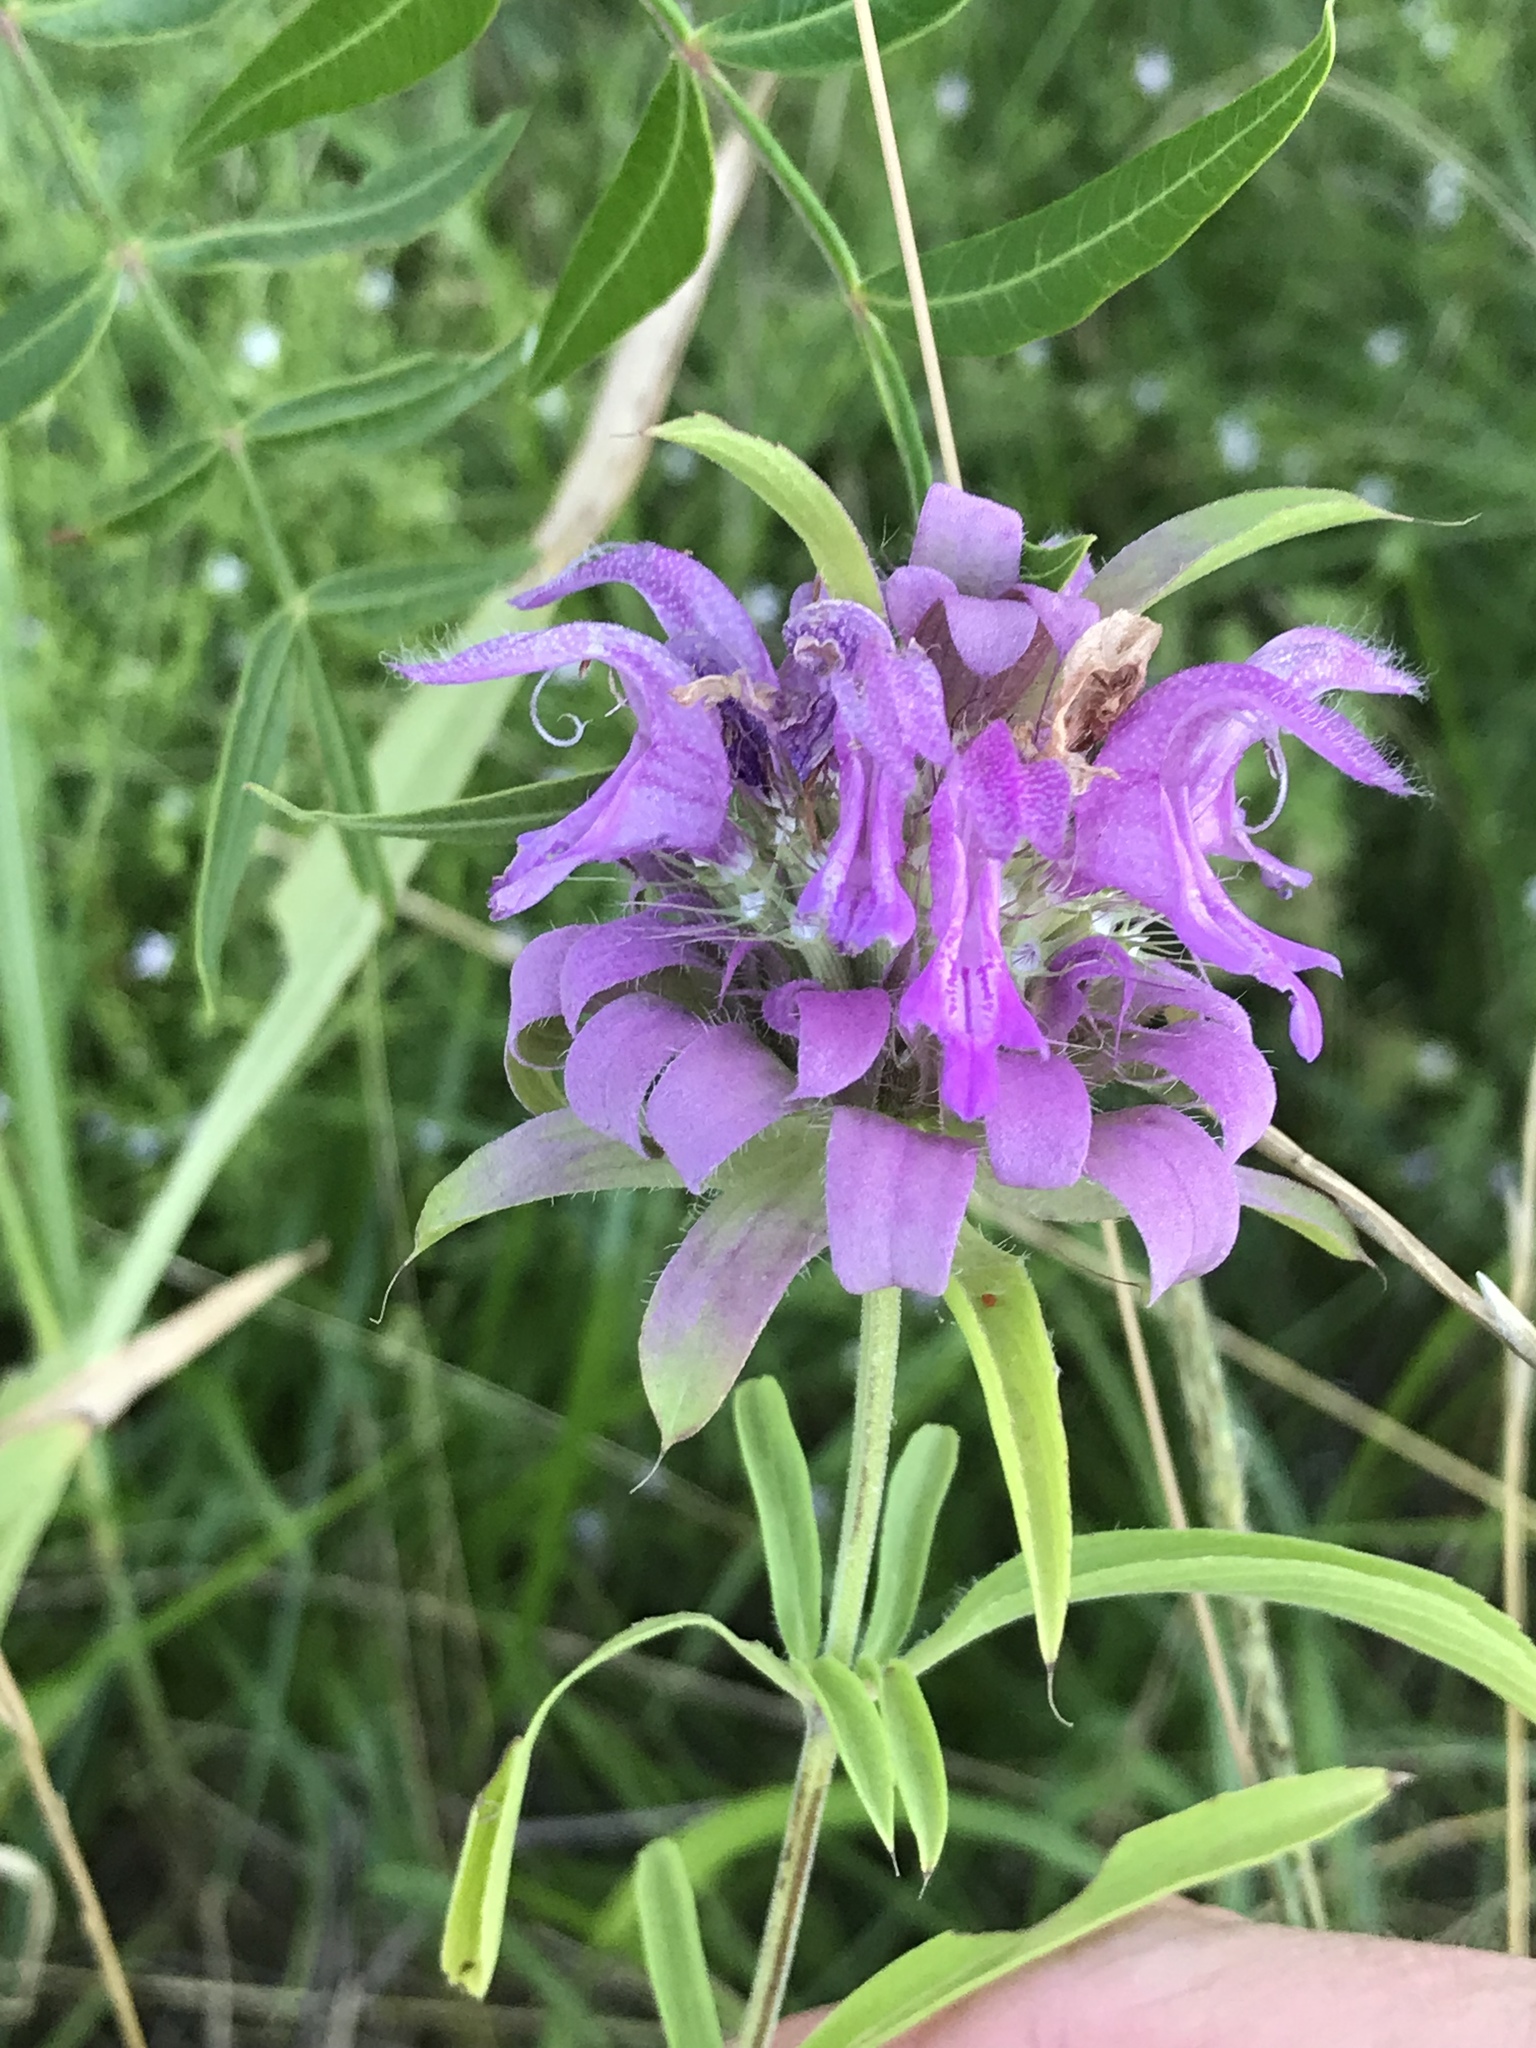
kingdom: Plantae
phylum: Tracheophyta
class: Magnoliopsida
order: Lamiales
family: Lamiaceae
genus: Monarda
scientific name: Monarda citriodora
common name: Lemon beebalm
